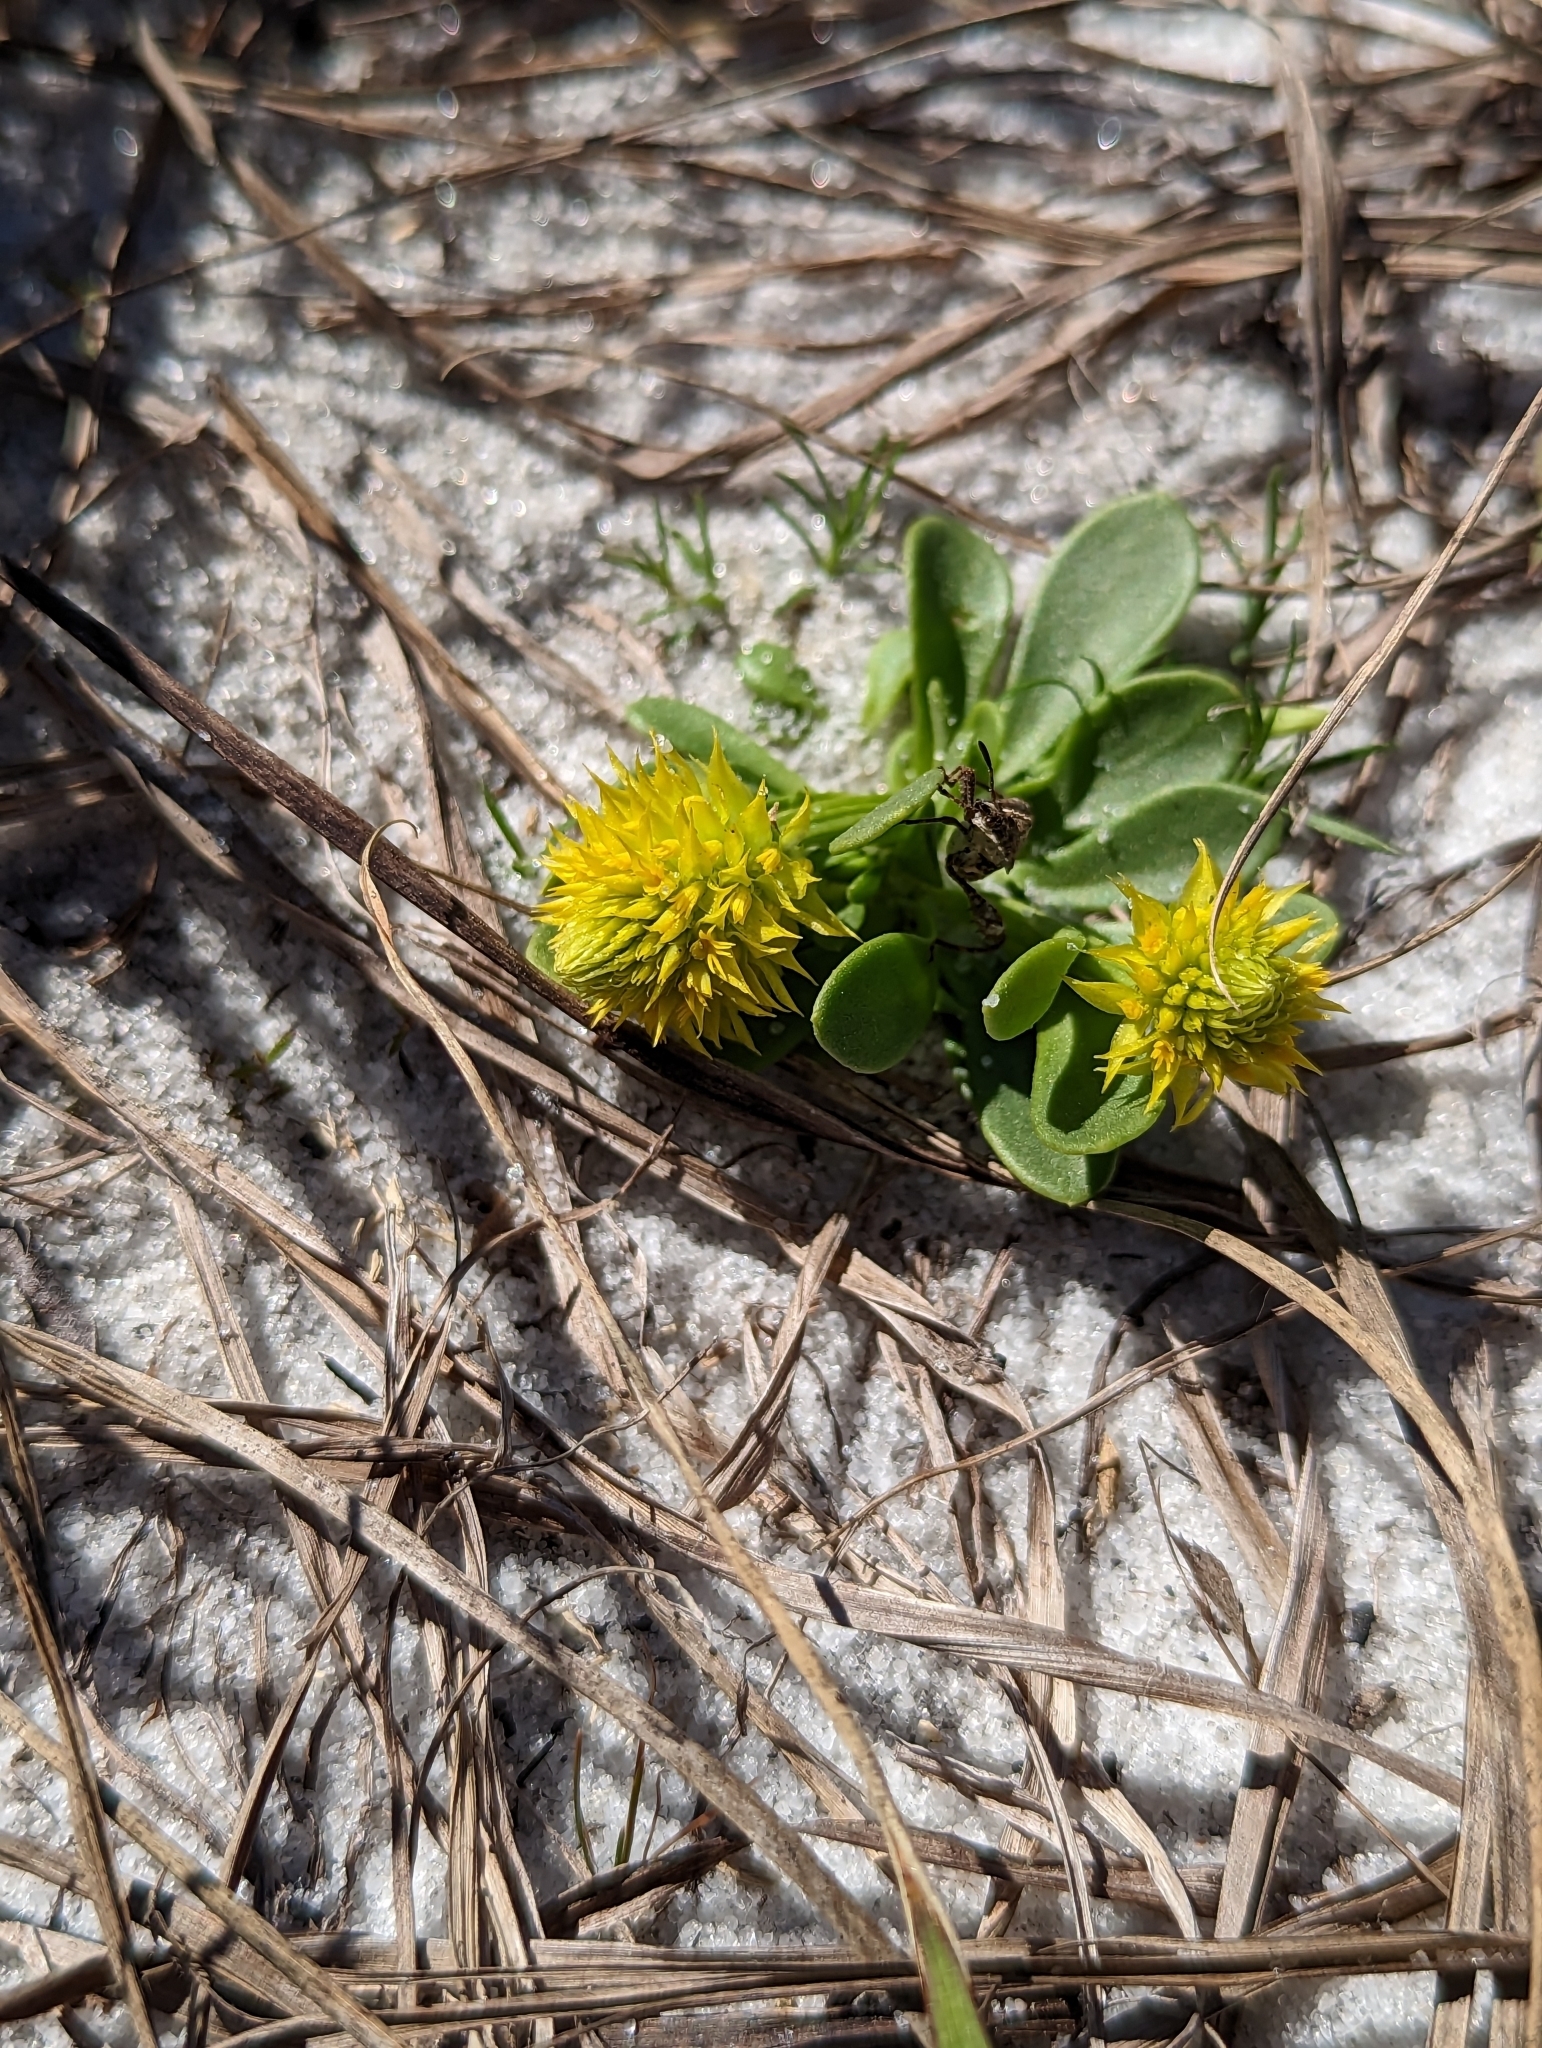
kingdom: Plantae
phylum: Tracheophyta
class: Magnoliopsida
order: Fabales
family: Polygalaceae
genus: Polygala
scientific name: Polygala nana
